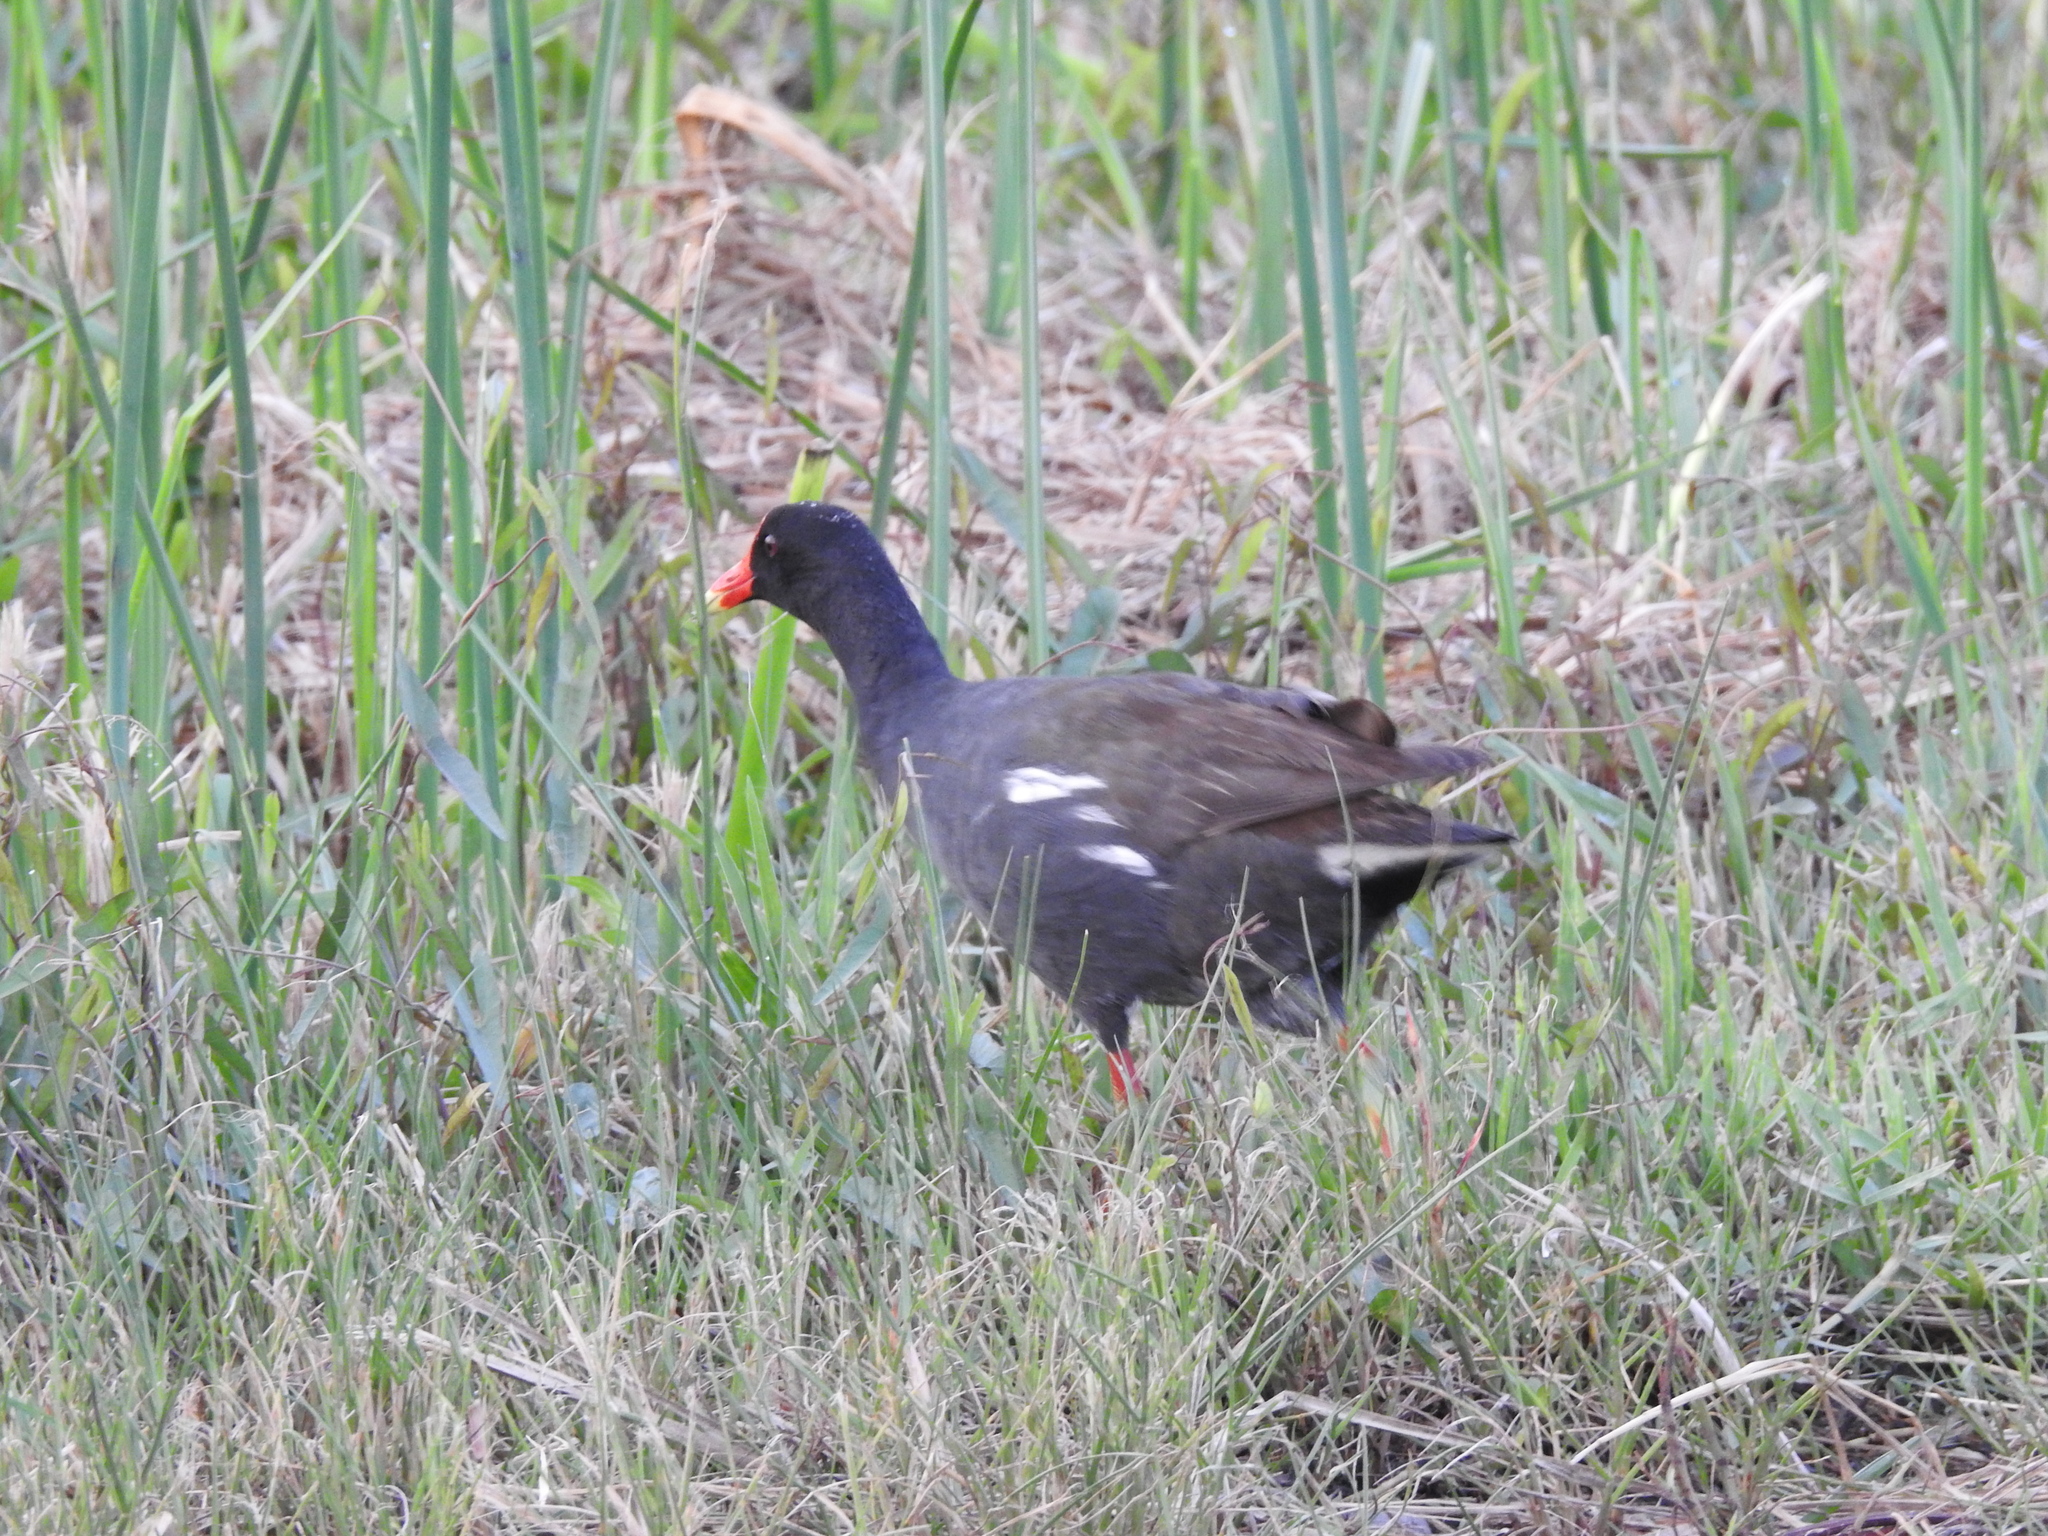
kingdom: Animalia
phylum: Chordata
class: Aves
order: Gruiformes
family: Rallidae
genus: Gallinula
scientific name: Gallinula chloropus
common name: Common moorhen
